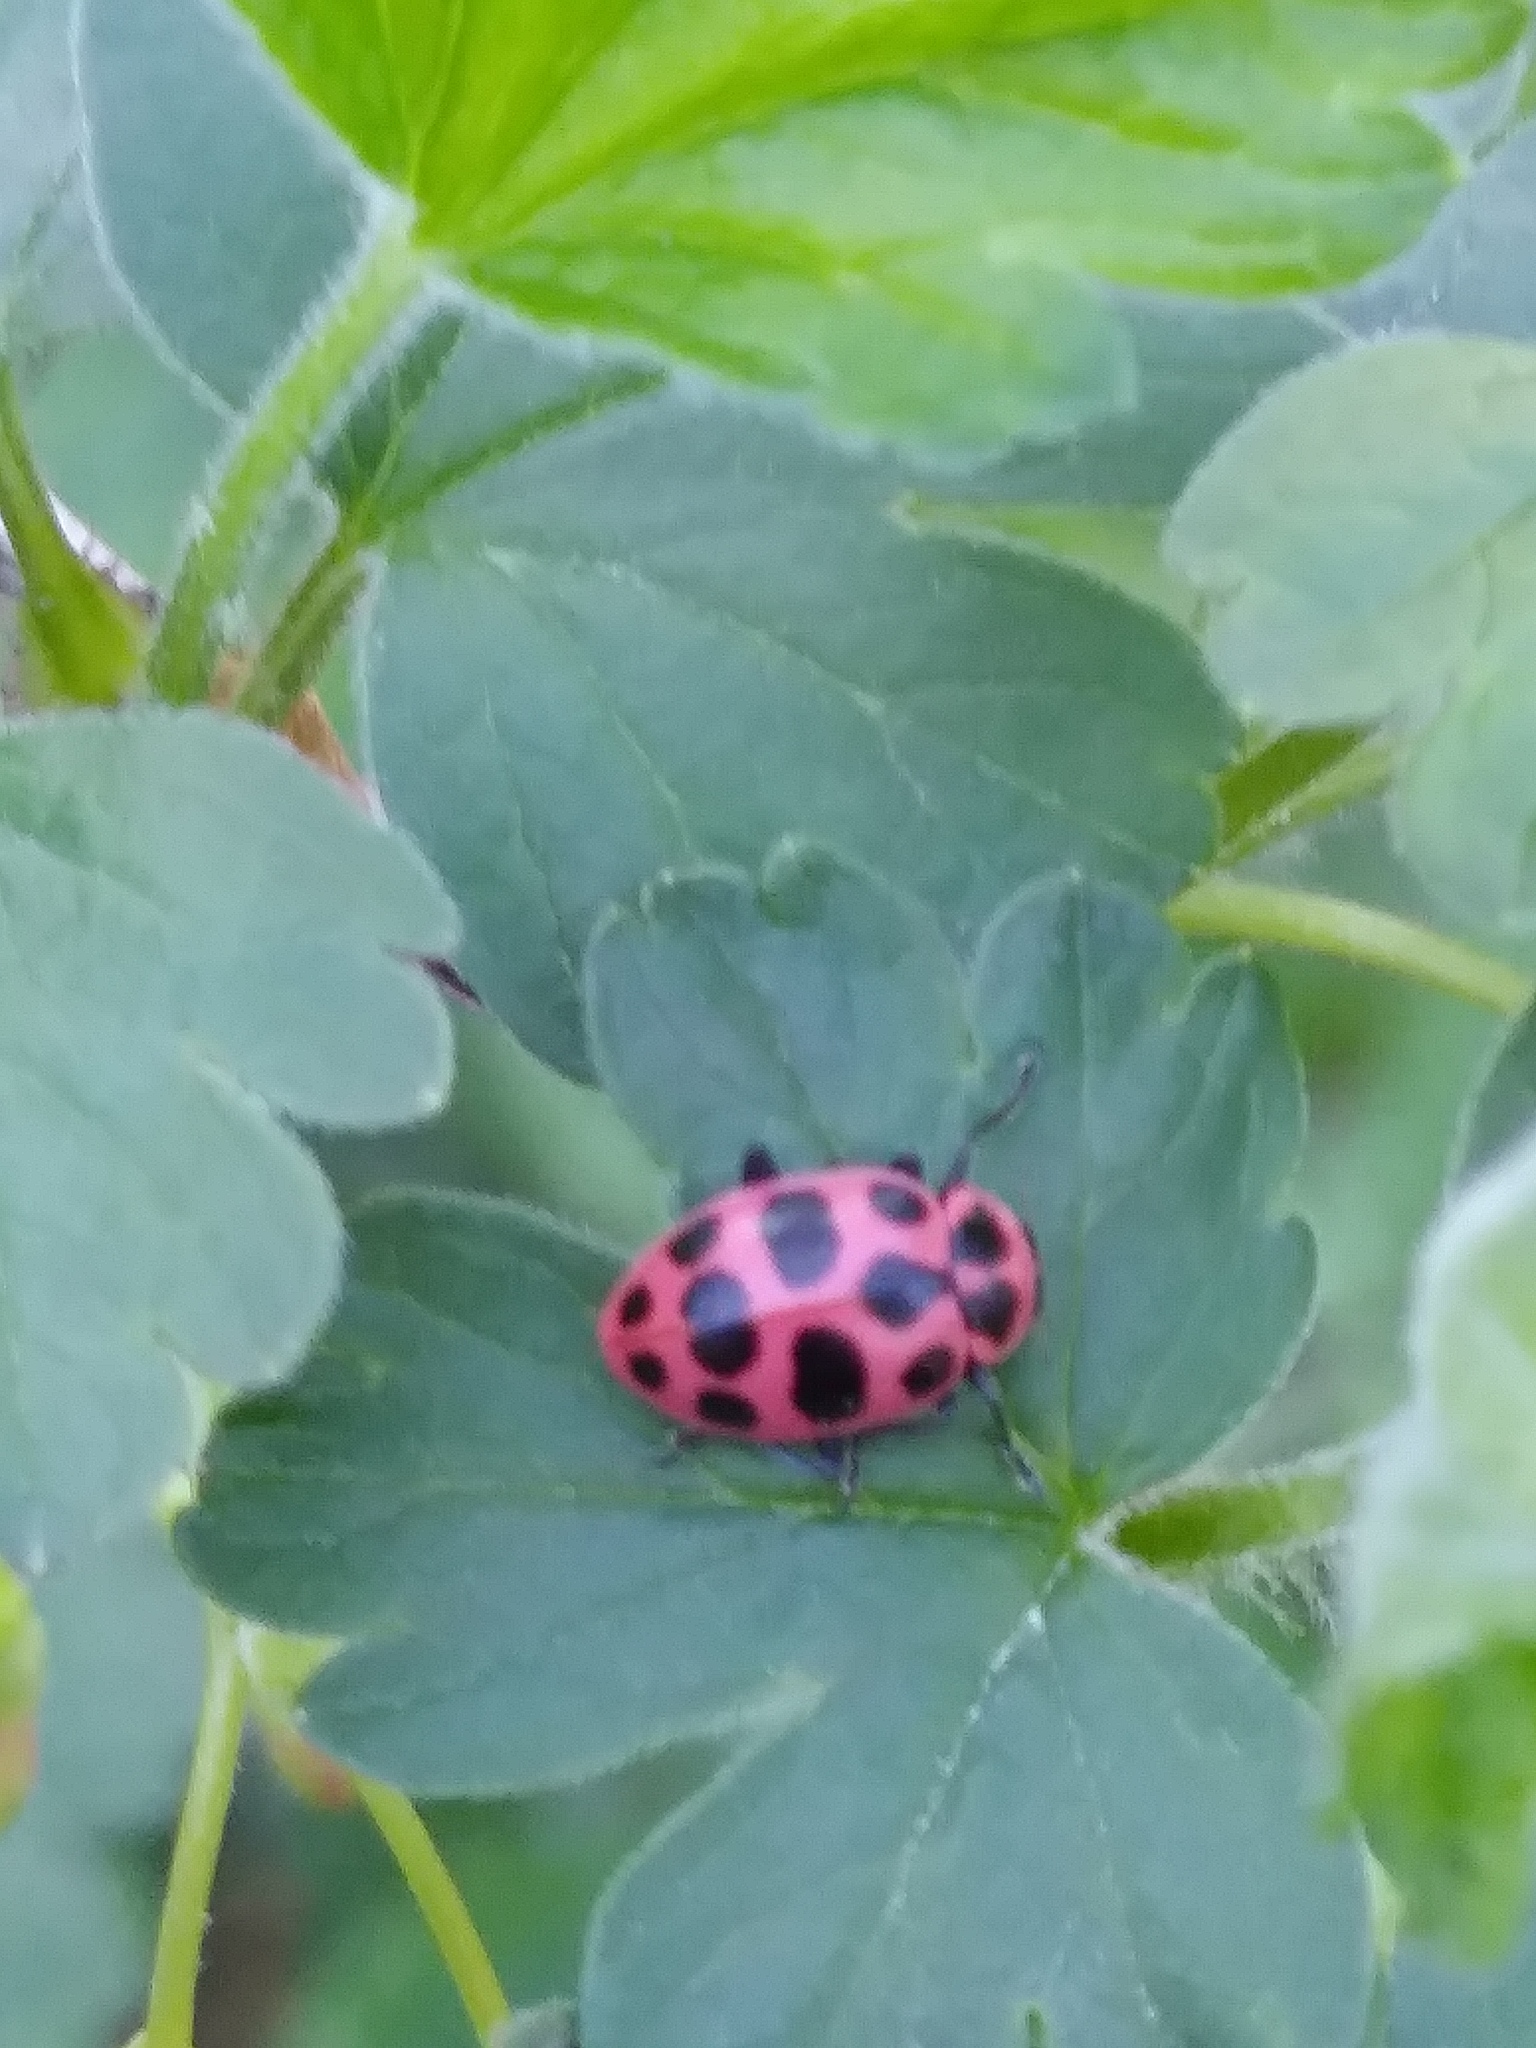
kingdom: Animalia
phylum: Arthropoda
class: Insecta
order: Coleoptera
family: Coccinellidae
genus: Coleomegilla
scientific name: Coleomegilla maculata
